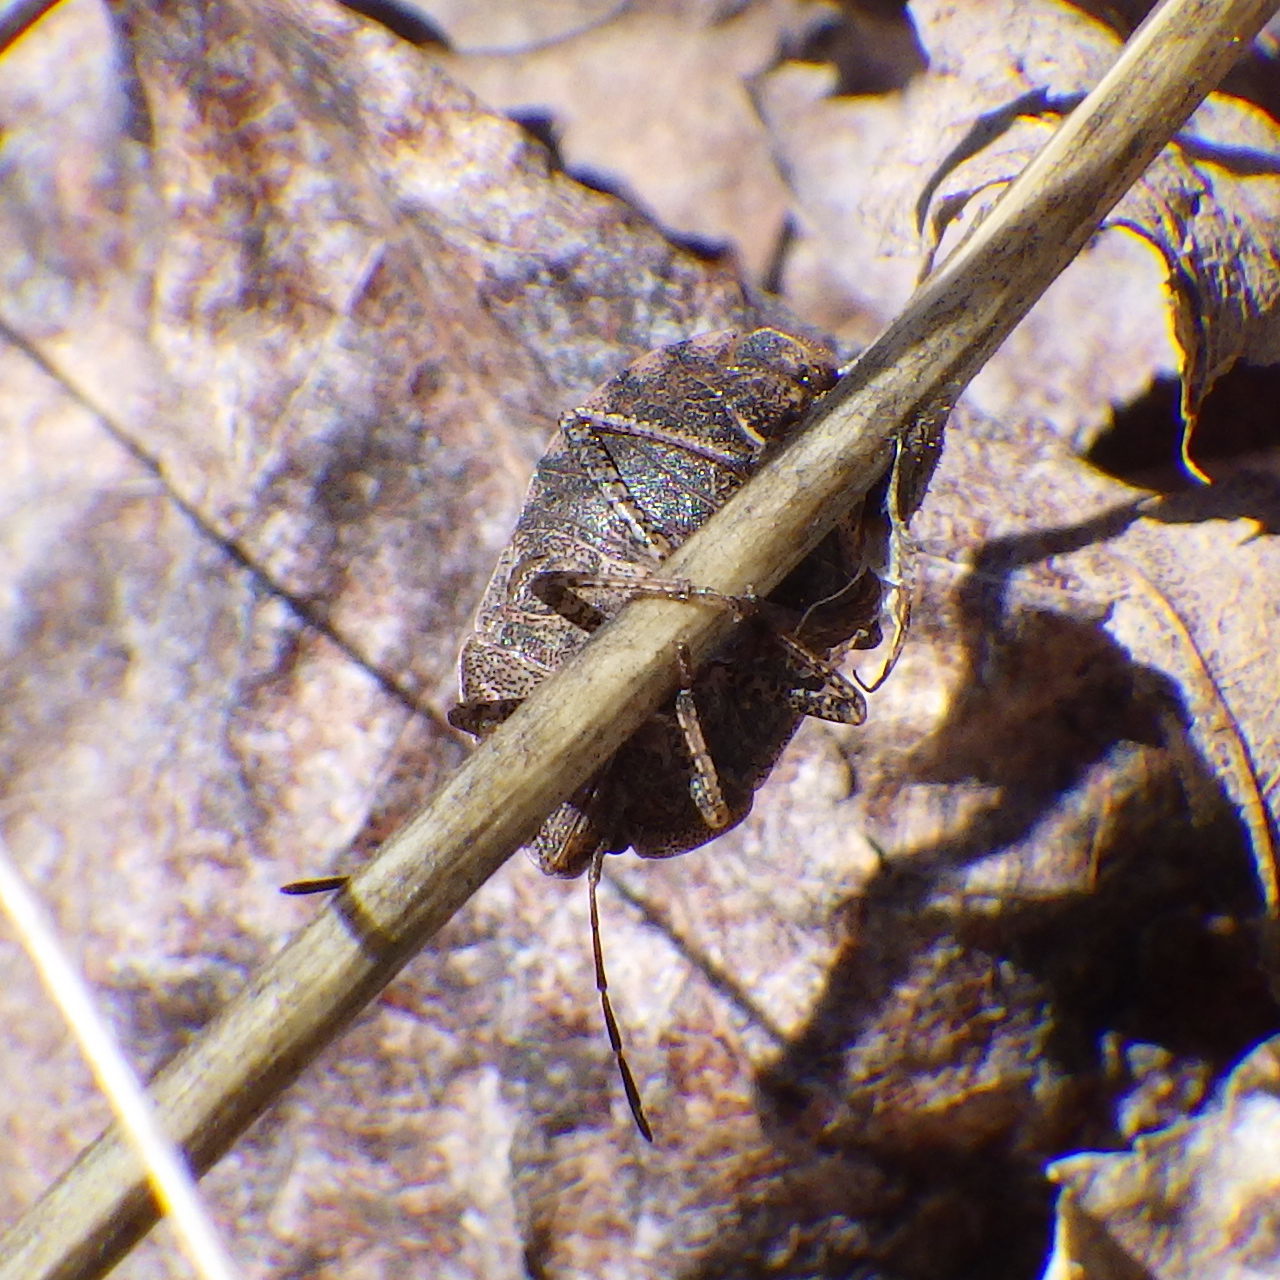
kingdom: Animalia
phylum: Arthropoda
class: Insecta
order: Hemiptera
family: Pentatomidae
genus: Menecles
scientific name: Menecles insertus
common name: Elf shoe stink bug
